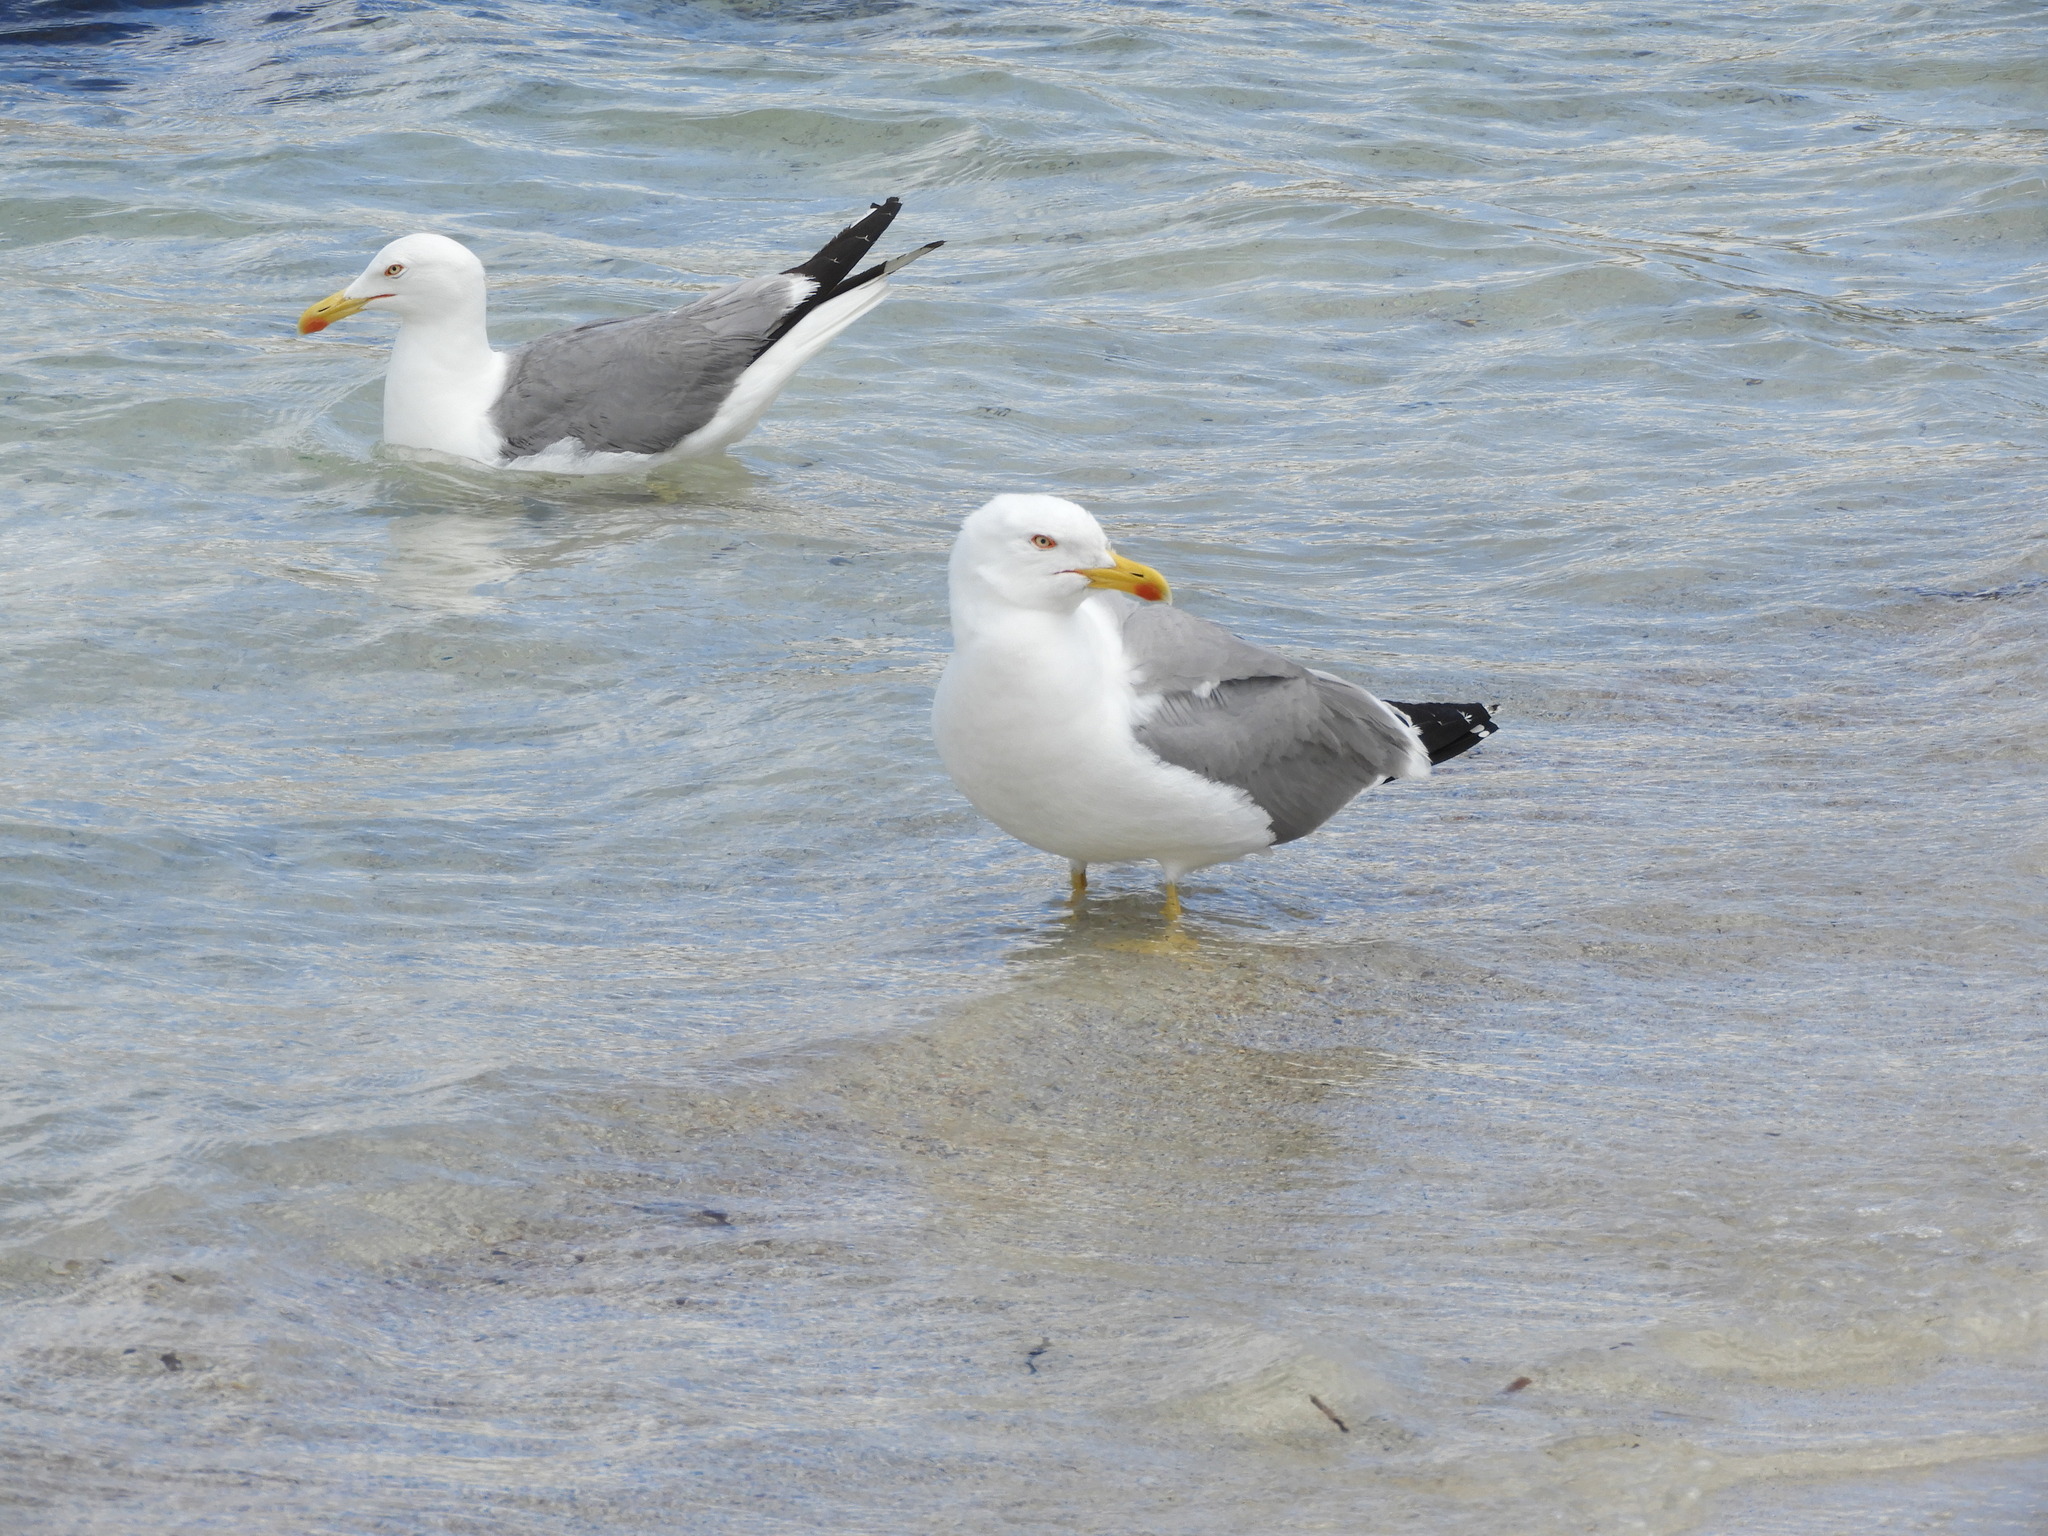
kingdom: Animalia
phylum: Chordata
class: Aves
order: Charadriiformes
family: Laridae
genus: Larus
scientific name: Larus michahellis
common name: Yellow-legged gull
